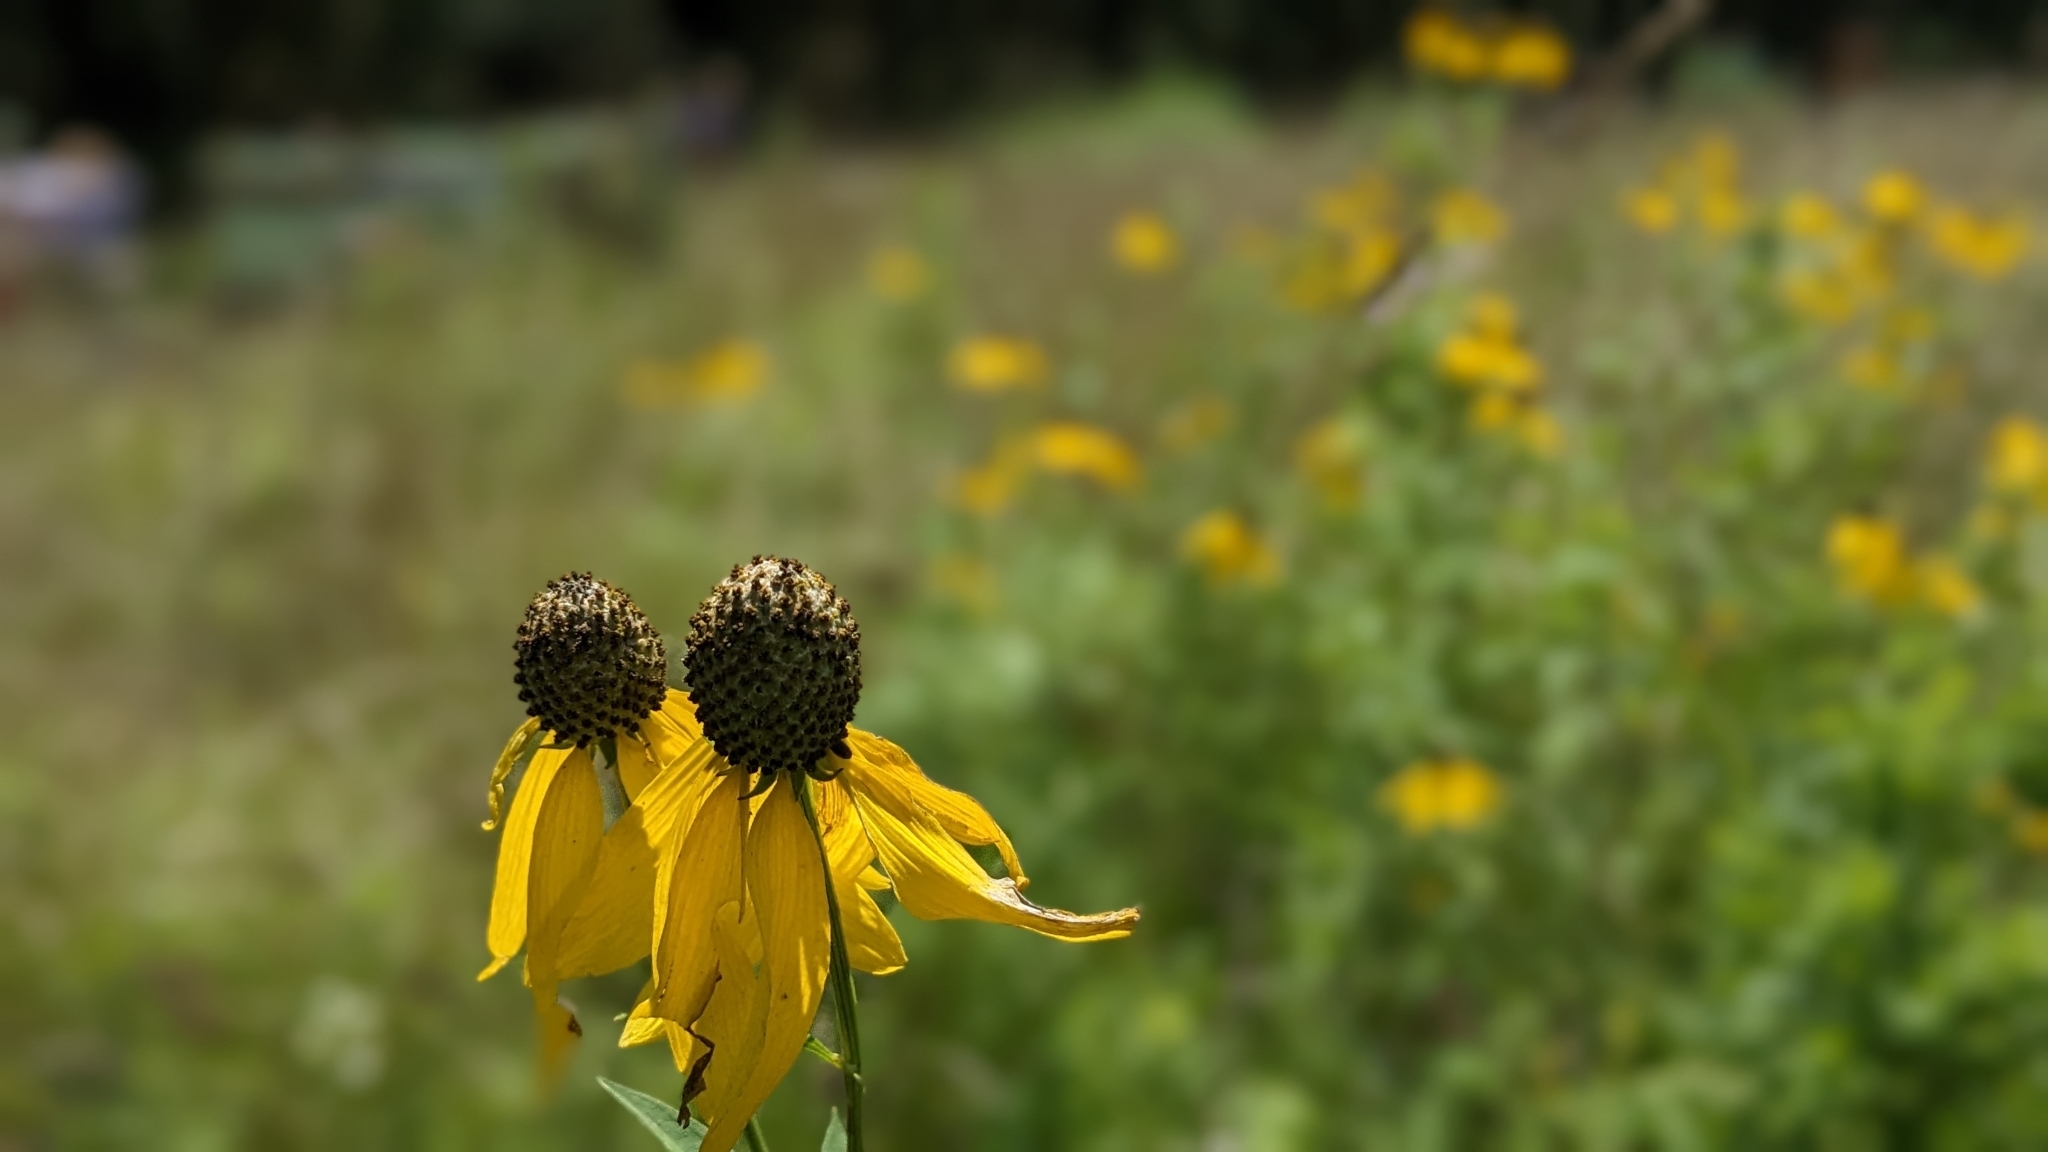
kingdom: Plantae
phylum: Tracheophyta
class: Magnoliopsida
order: Asterales
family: Asteraceae
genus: Ratibida
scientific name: Ratibida pinnata
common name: Drooping prairie-coneflower
